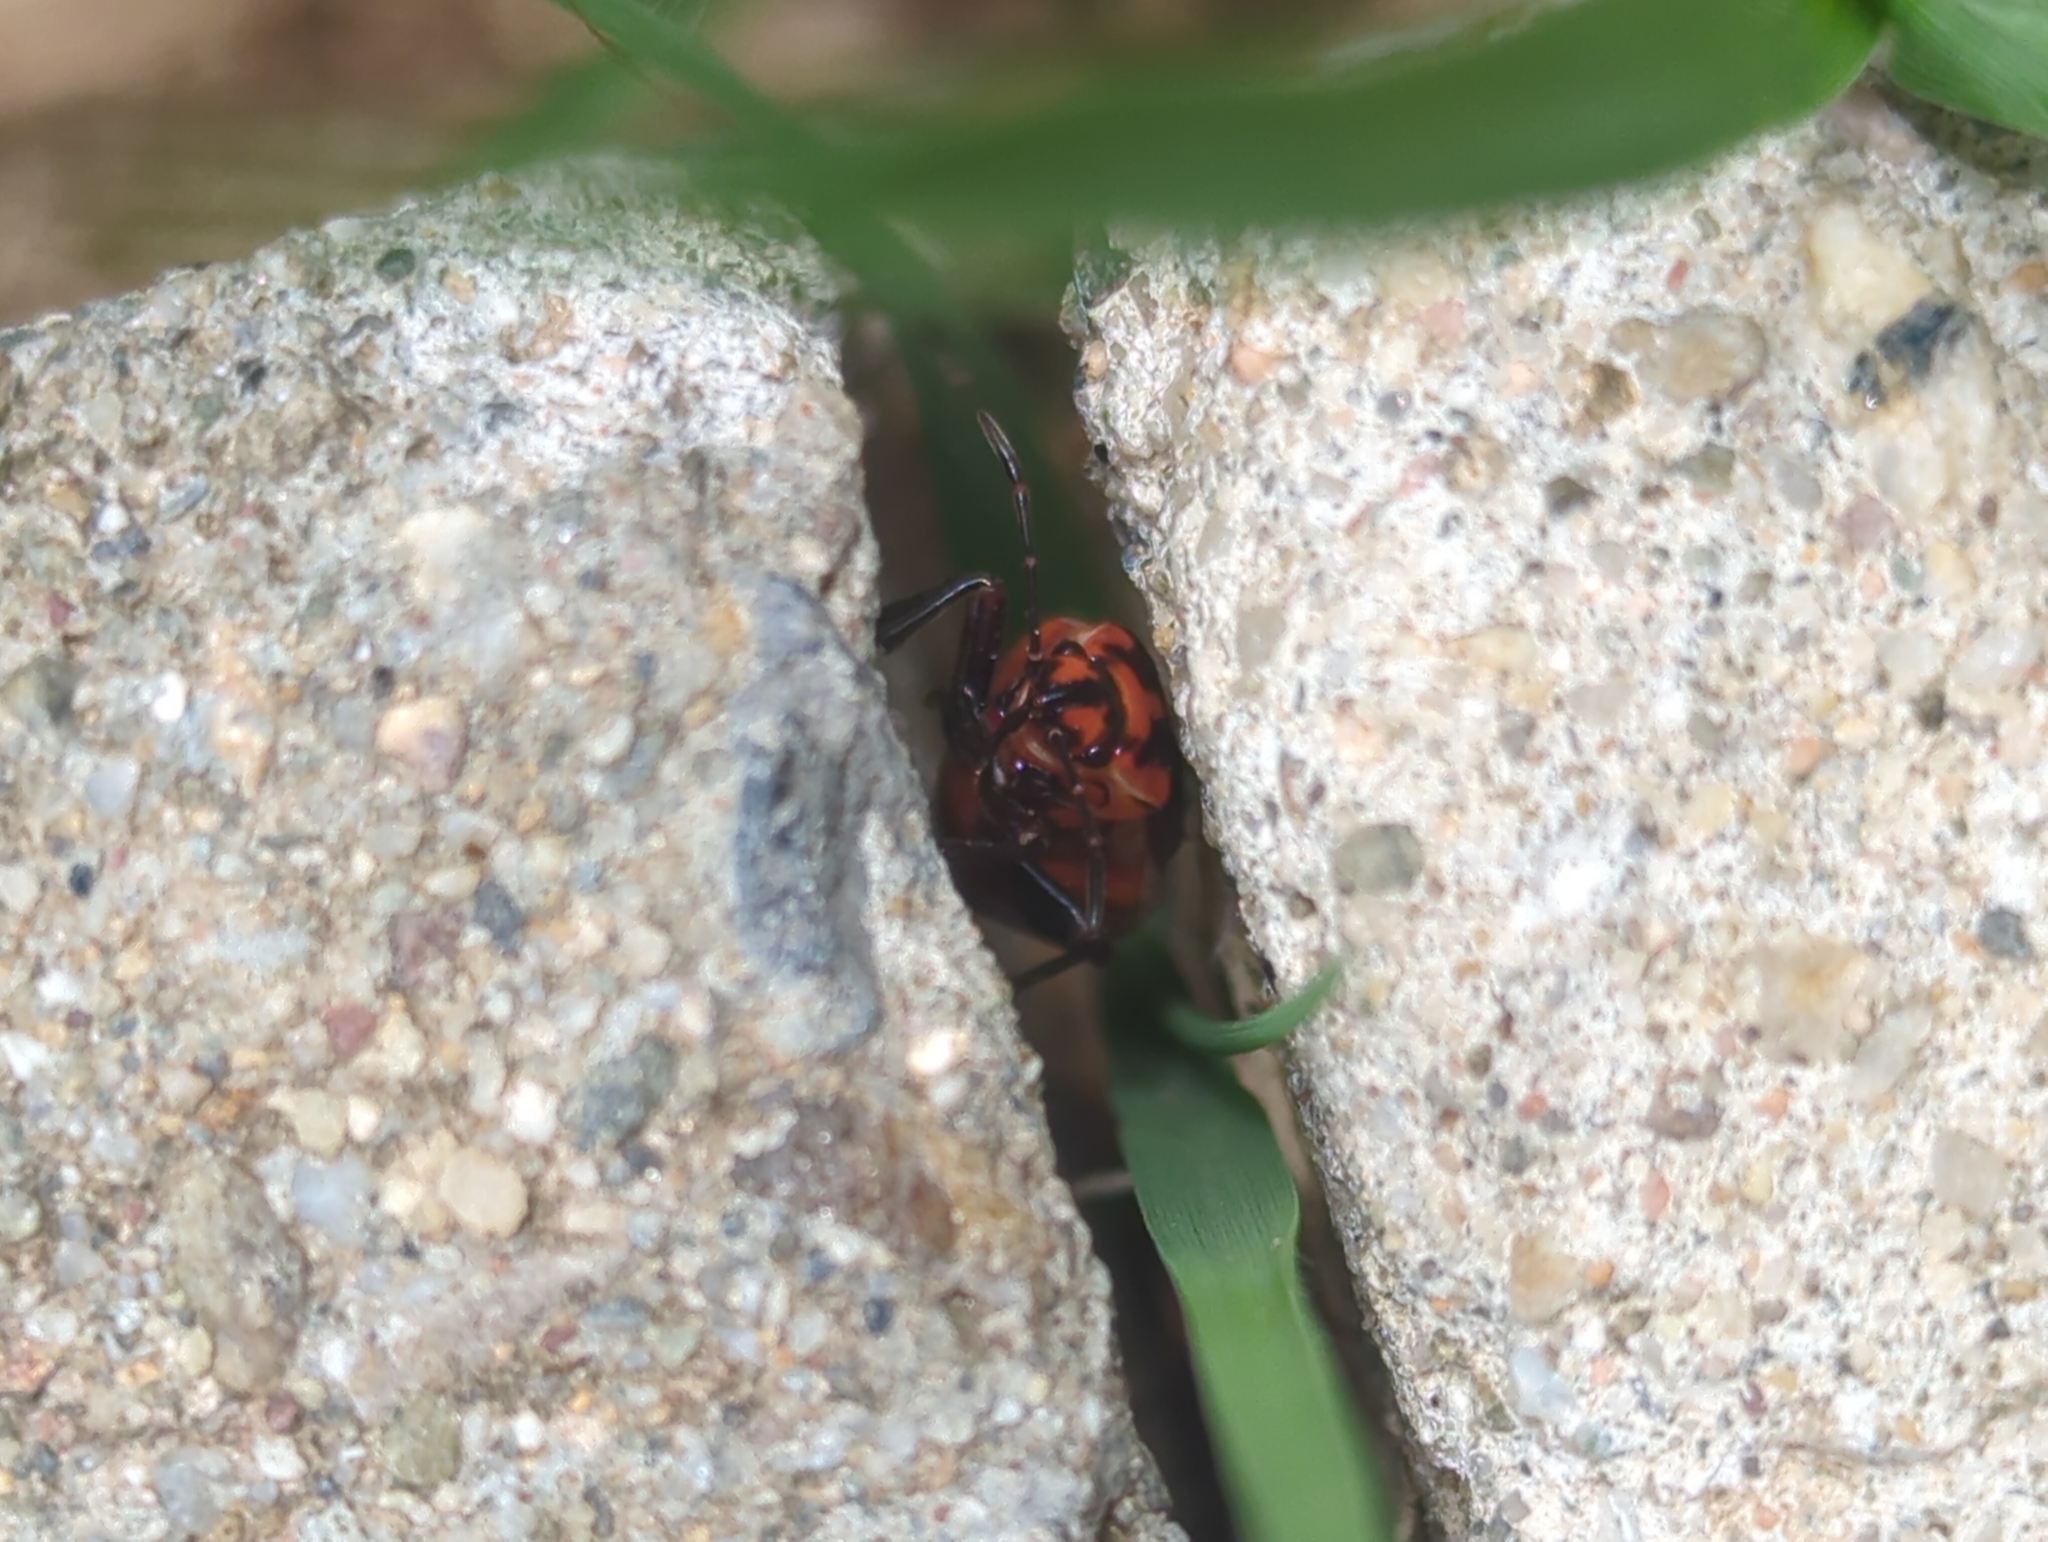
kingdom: Animalia
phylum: Arthropoda
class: Insecta
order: Hemiptera
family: Lygaeidae
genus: Spilostethus
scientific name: Spilostethus pandurus
